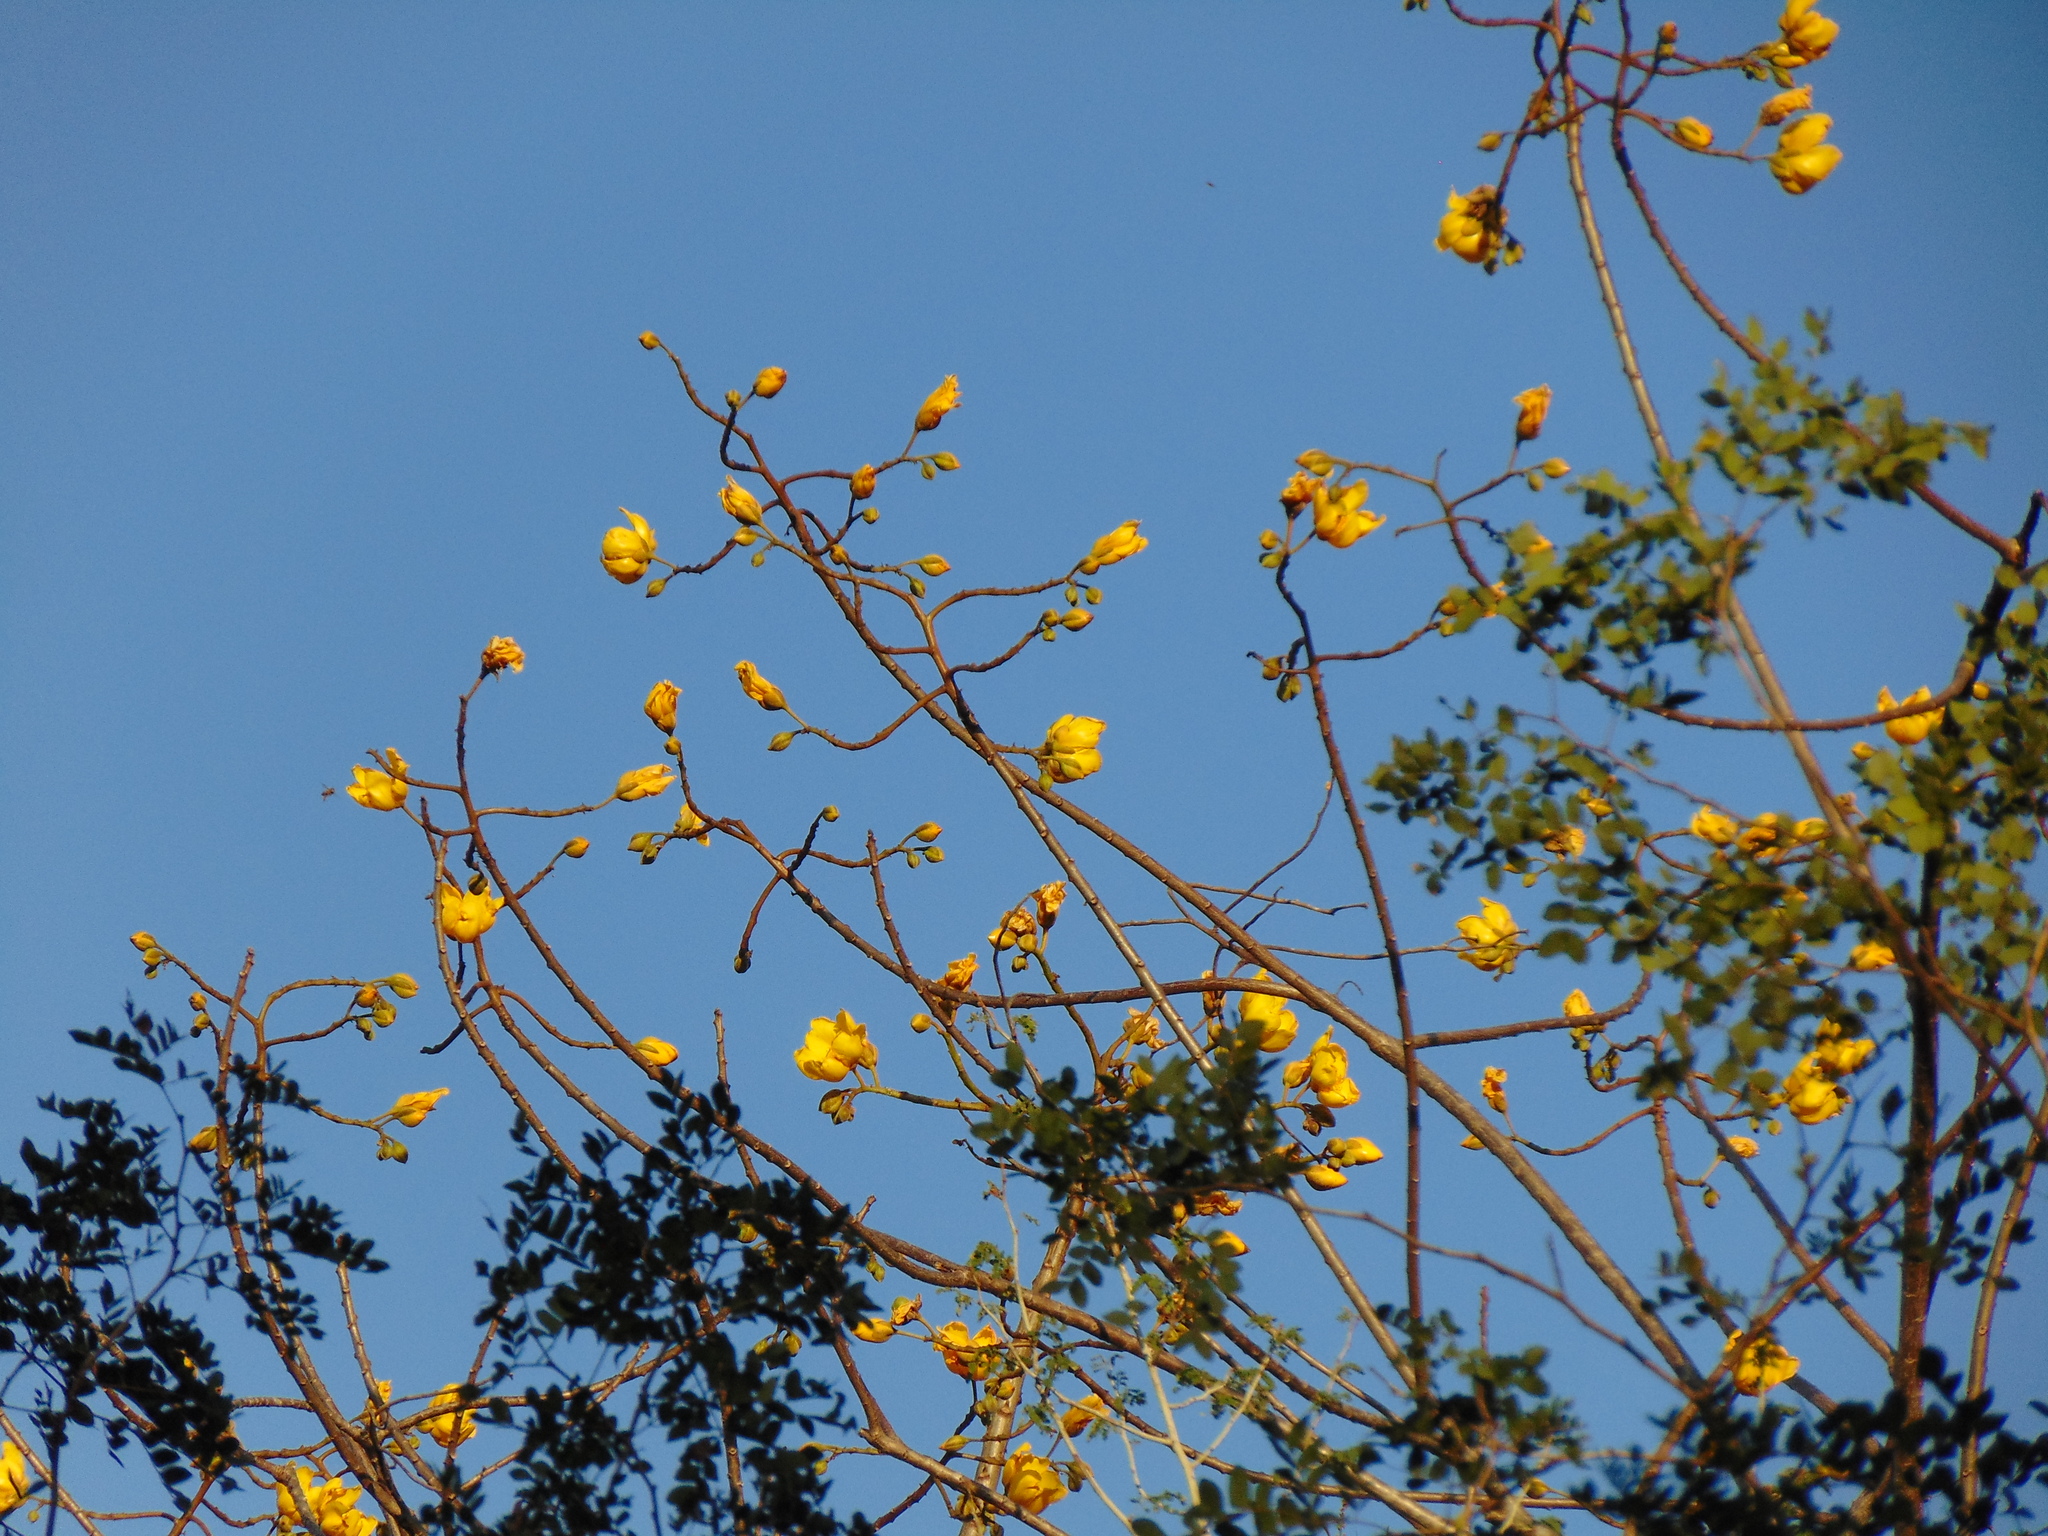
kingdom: Plantae
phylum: Tracheophyta
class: Magnoliopsida
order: Malvales
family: Cochlospermaceae
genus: Cochlospermum
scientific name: Cochlospermum vitifolium
